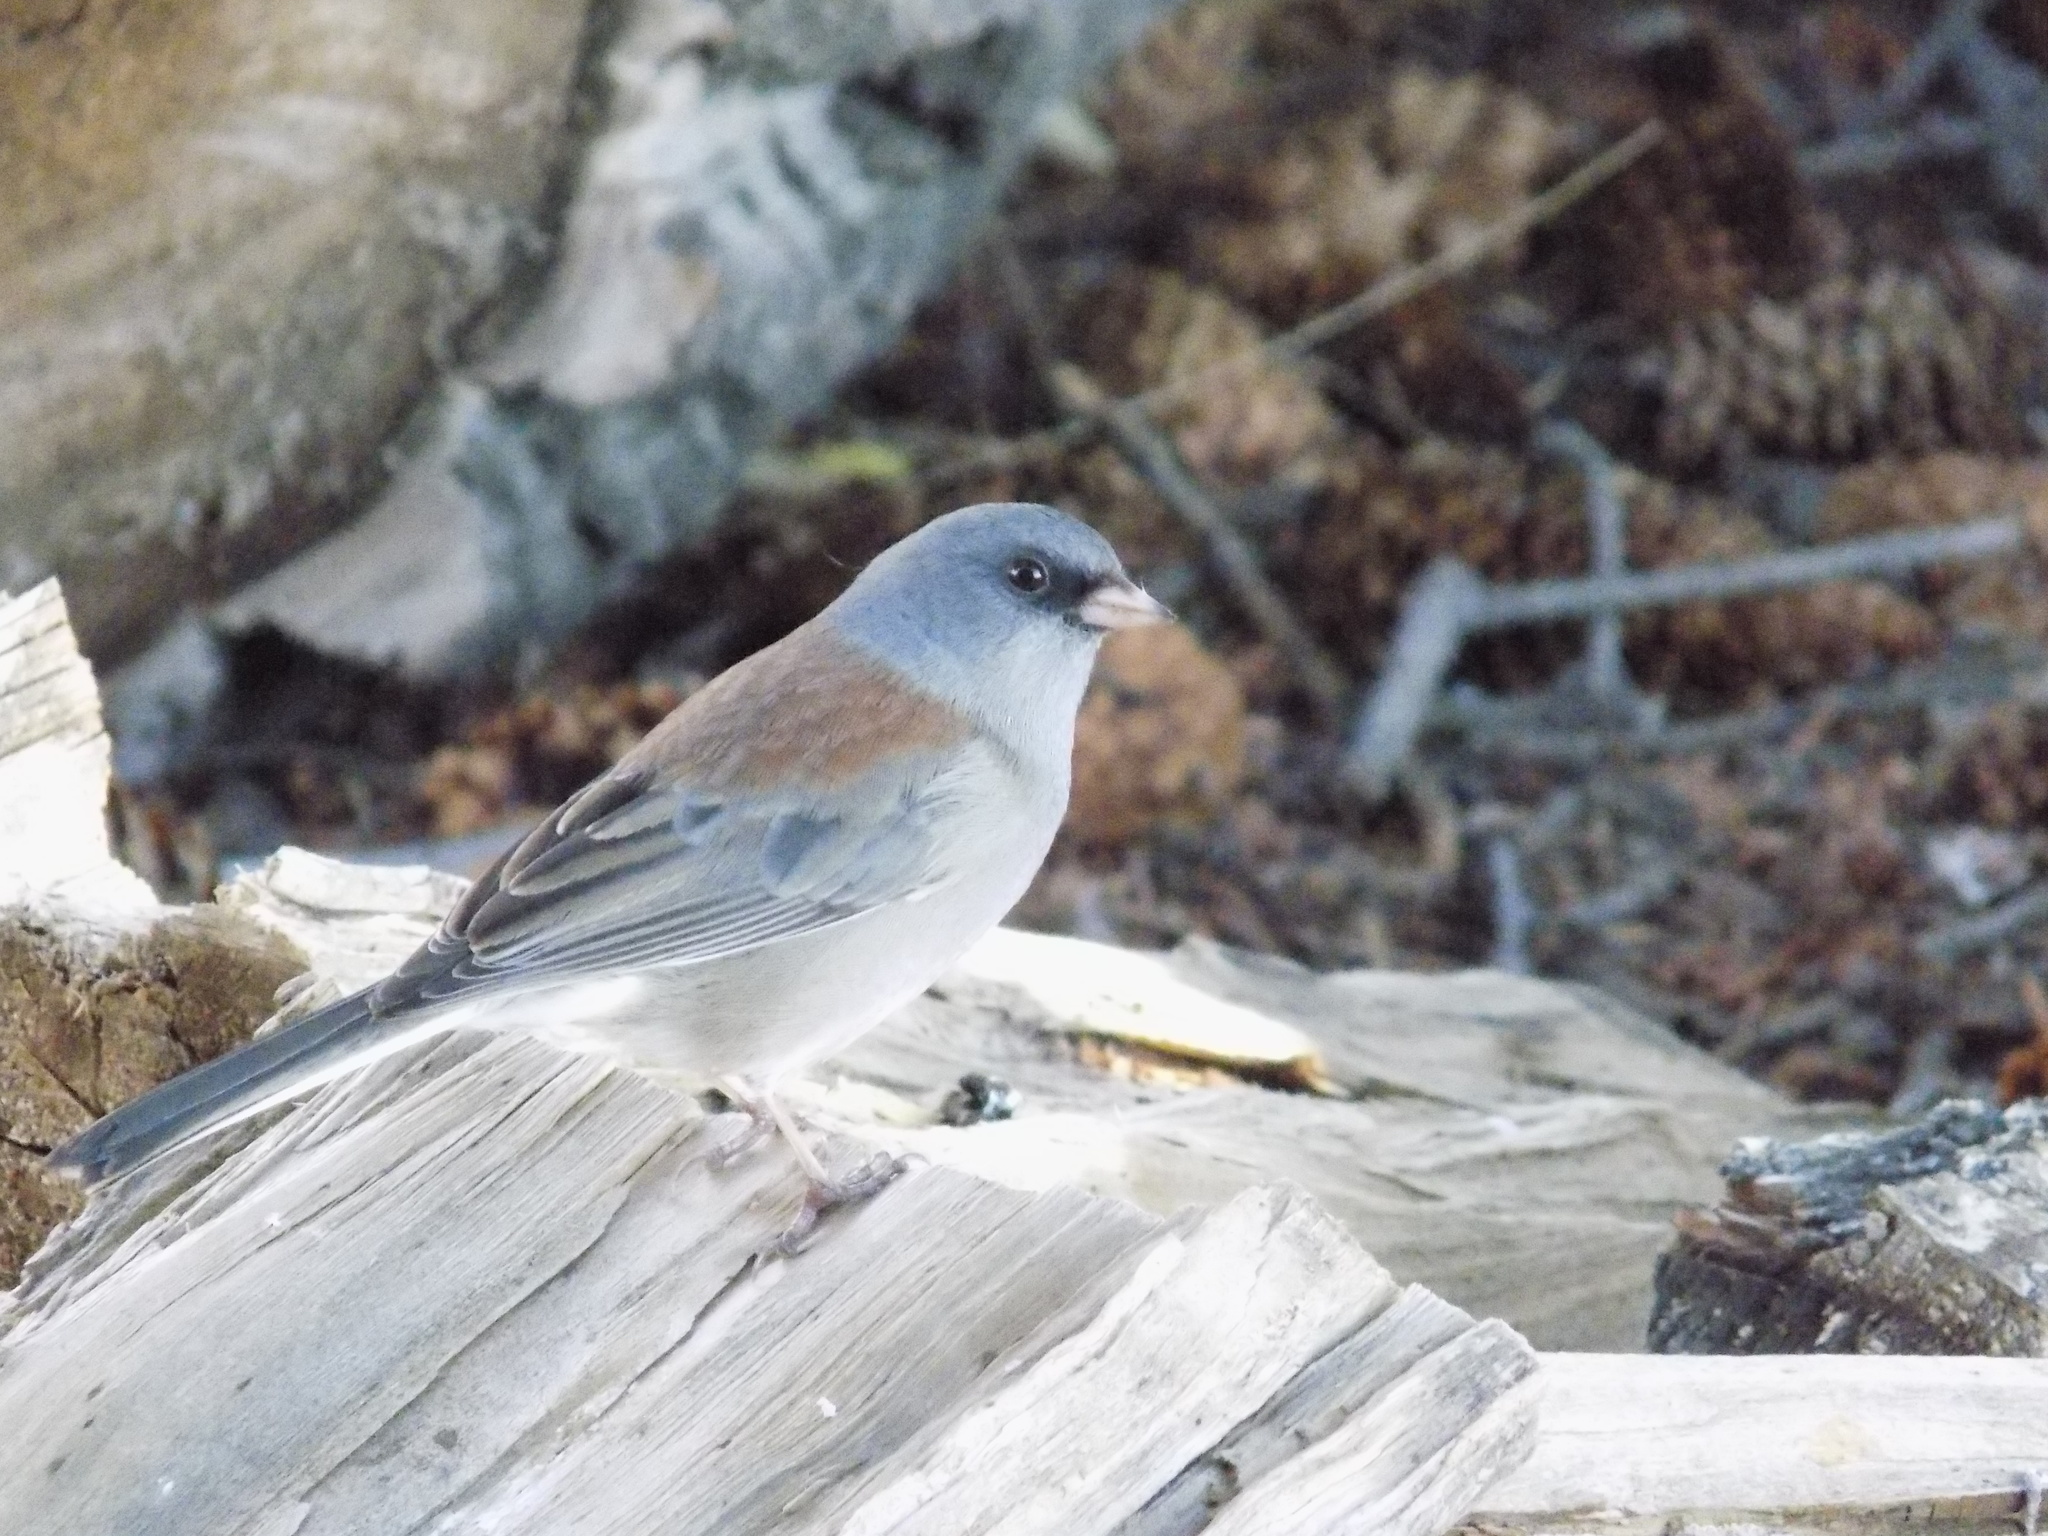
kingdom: Animalia
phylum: Chordata
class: Aves
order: Passeriformes
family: Passerellidae
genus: Junco
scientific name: Junco hyemalis
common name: Dark-eyed junco
